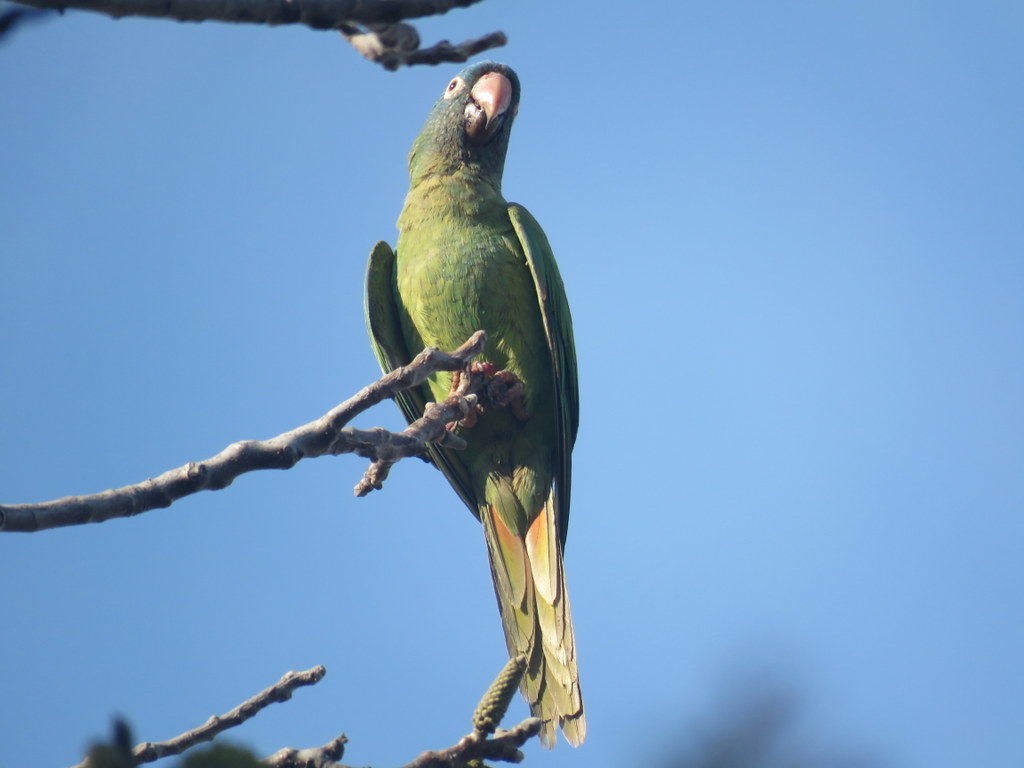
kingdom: Animalia
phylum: Chordata
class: Aves
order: Psittaciformes
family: Psittacidae
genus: Aratinga
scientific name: Aratinga acuticaudata
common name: Blue-crowned parakeet
